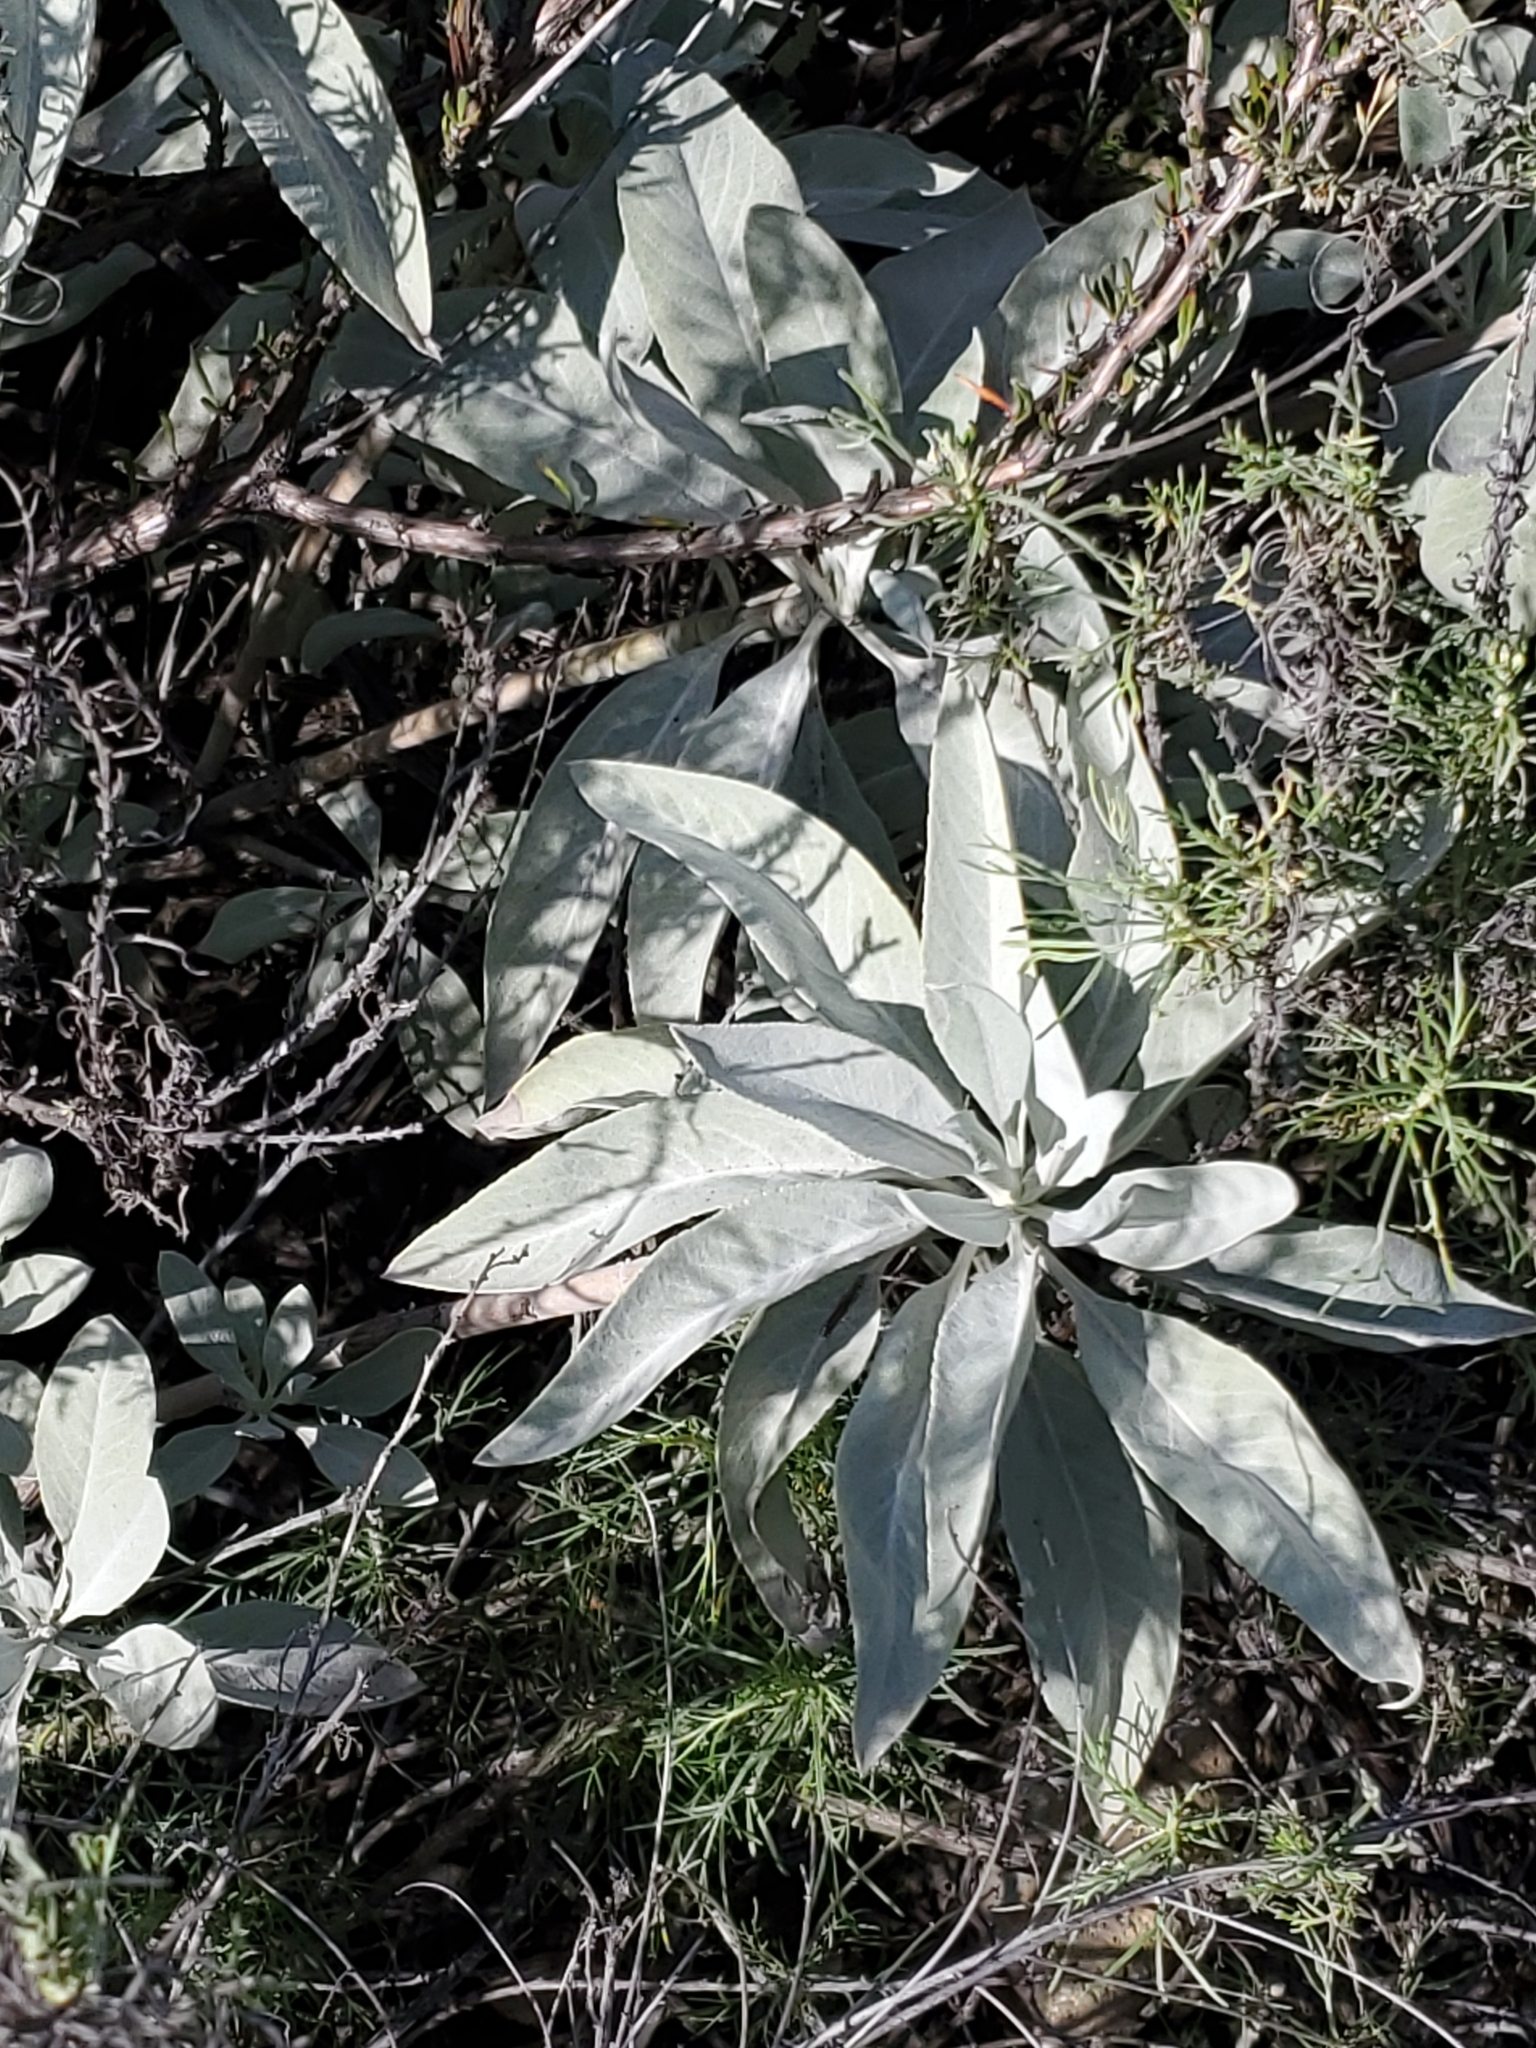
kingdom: Plantae
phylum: Tracheophyta
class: Magnoliopsida
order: Lamiales
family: Lamiaceae
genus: Salvia
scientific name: Salvia apiana
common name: White sage
